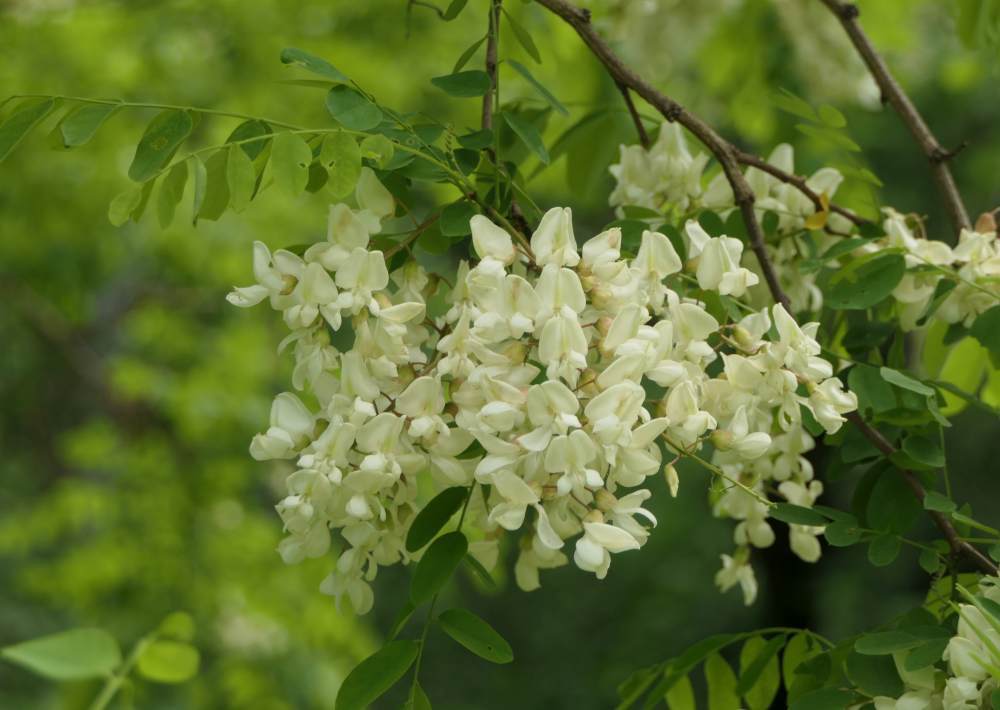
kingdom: Plantae
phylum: Tracheophyta
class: Magnoliopsida
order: Fabales
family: Fabaceae
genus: Robinia
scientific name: Robinia pseudoacacia
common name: Black locust
